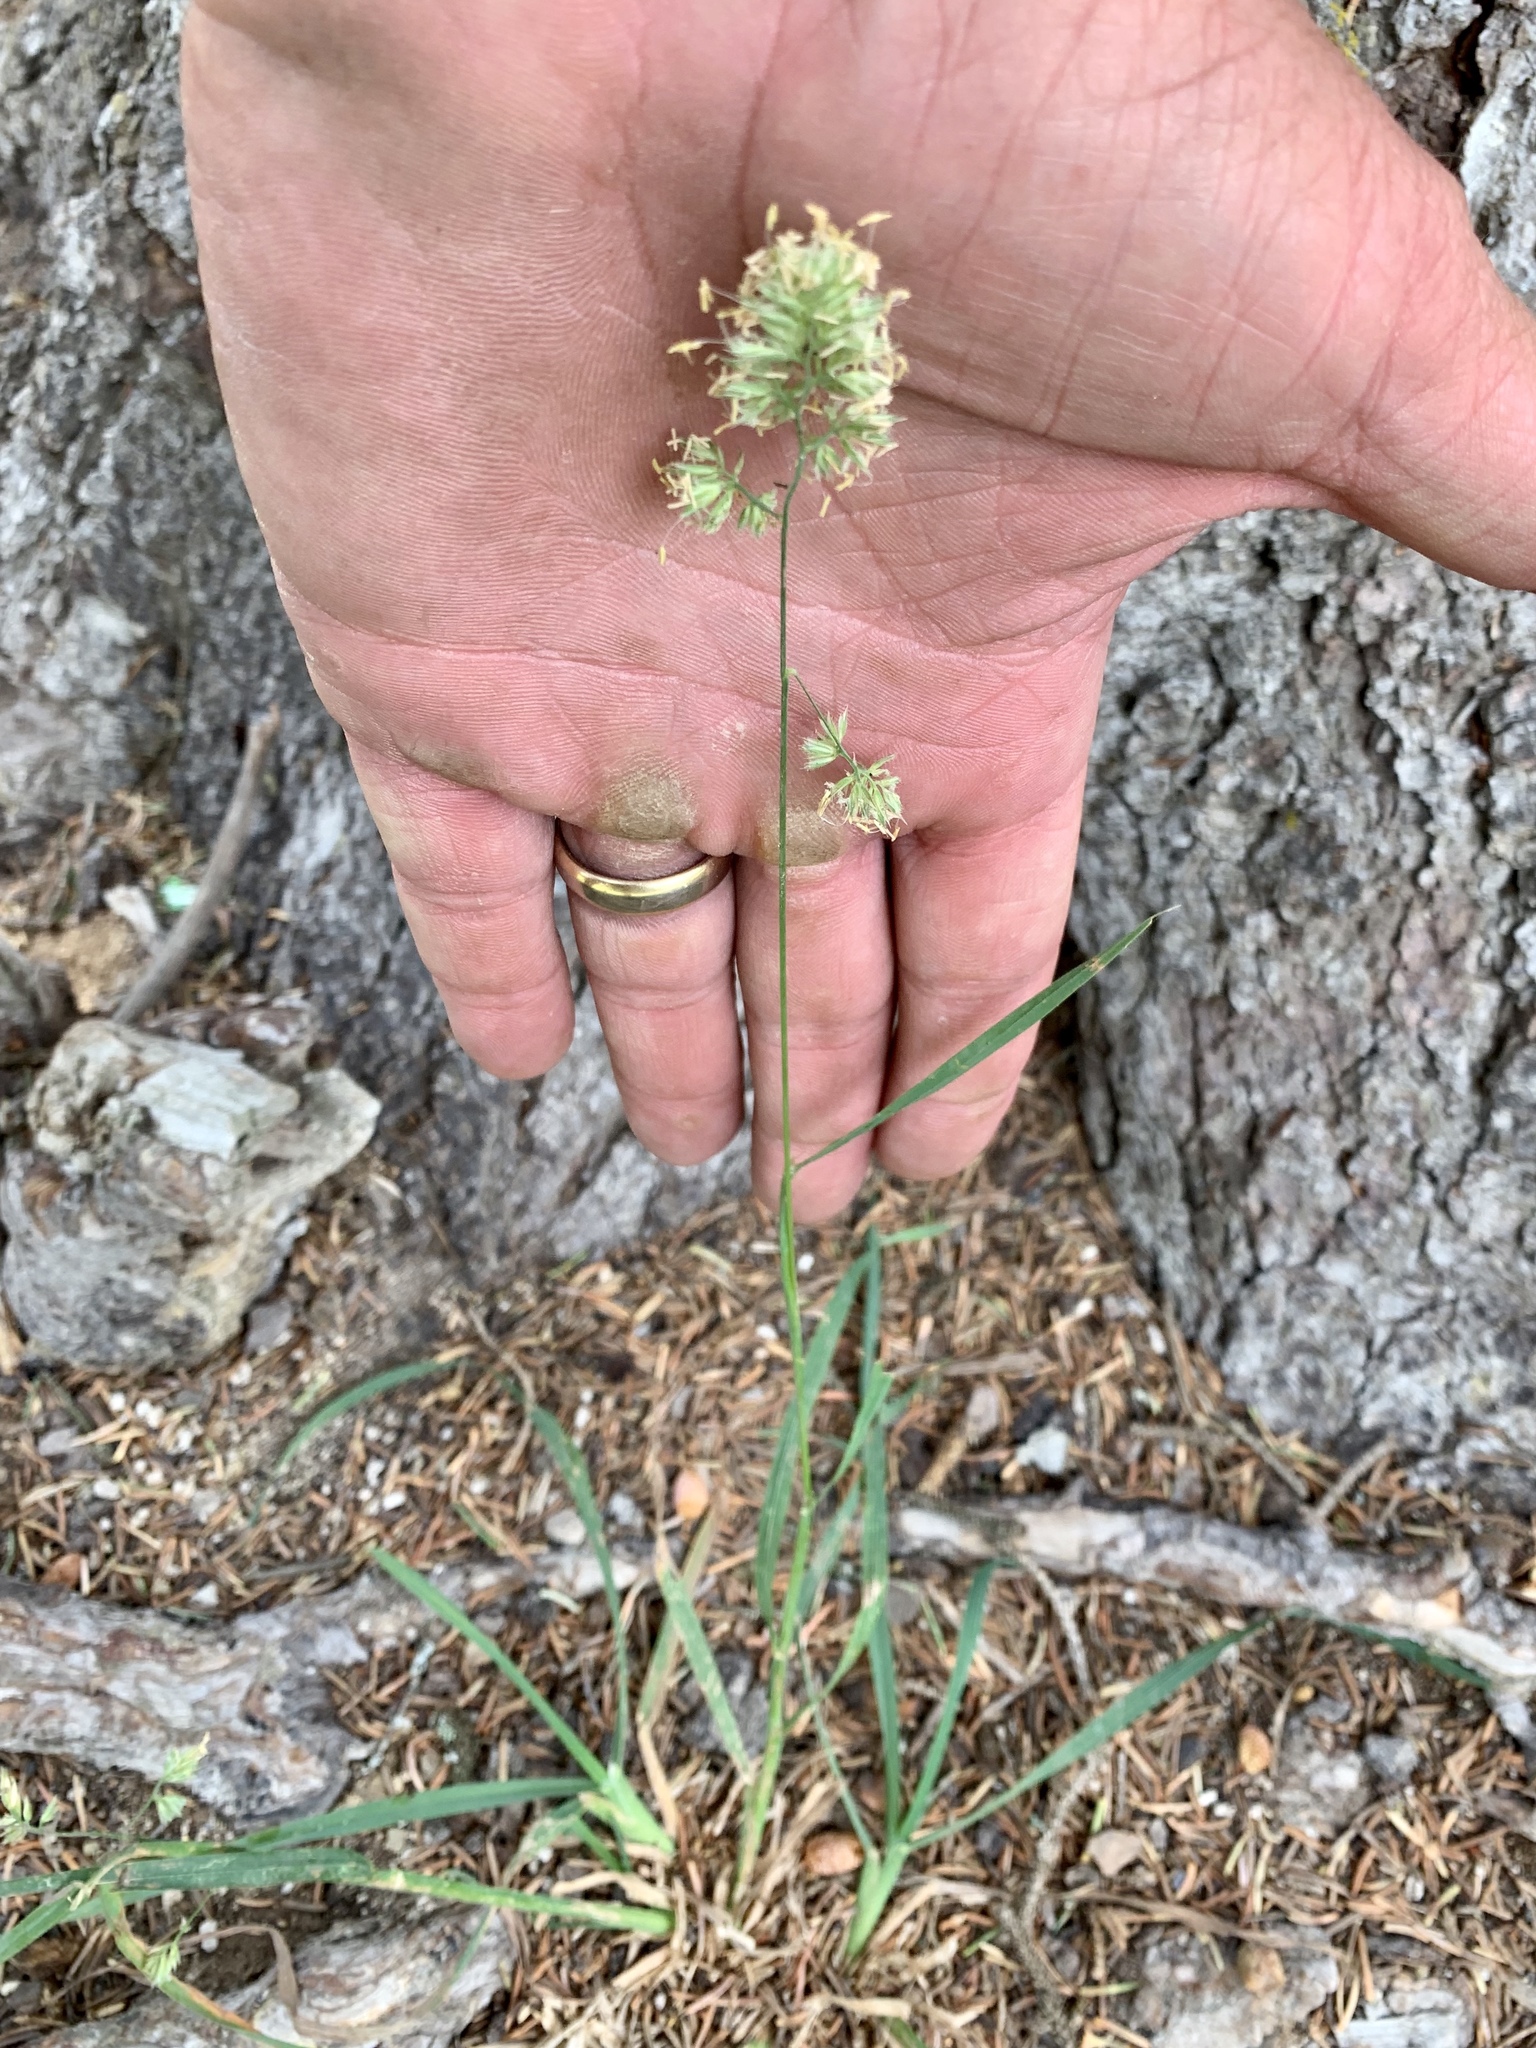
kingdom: Plantae
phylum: Tracheophyta
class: Liliopsida
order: Poales
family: Poaceae
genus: Dactylis
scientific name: Dactylis glomerata
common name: Orchardgrass
